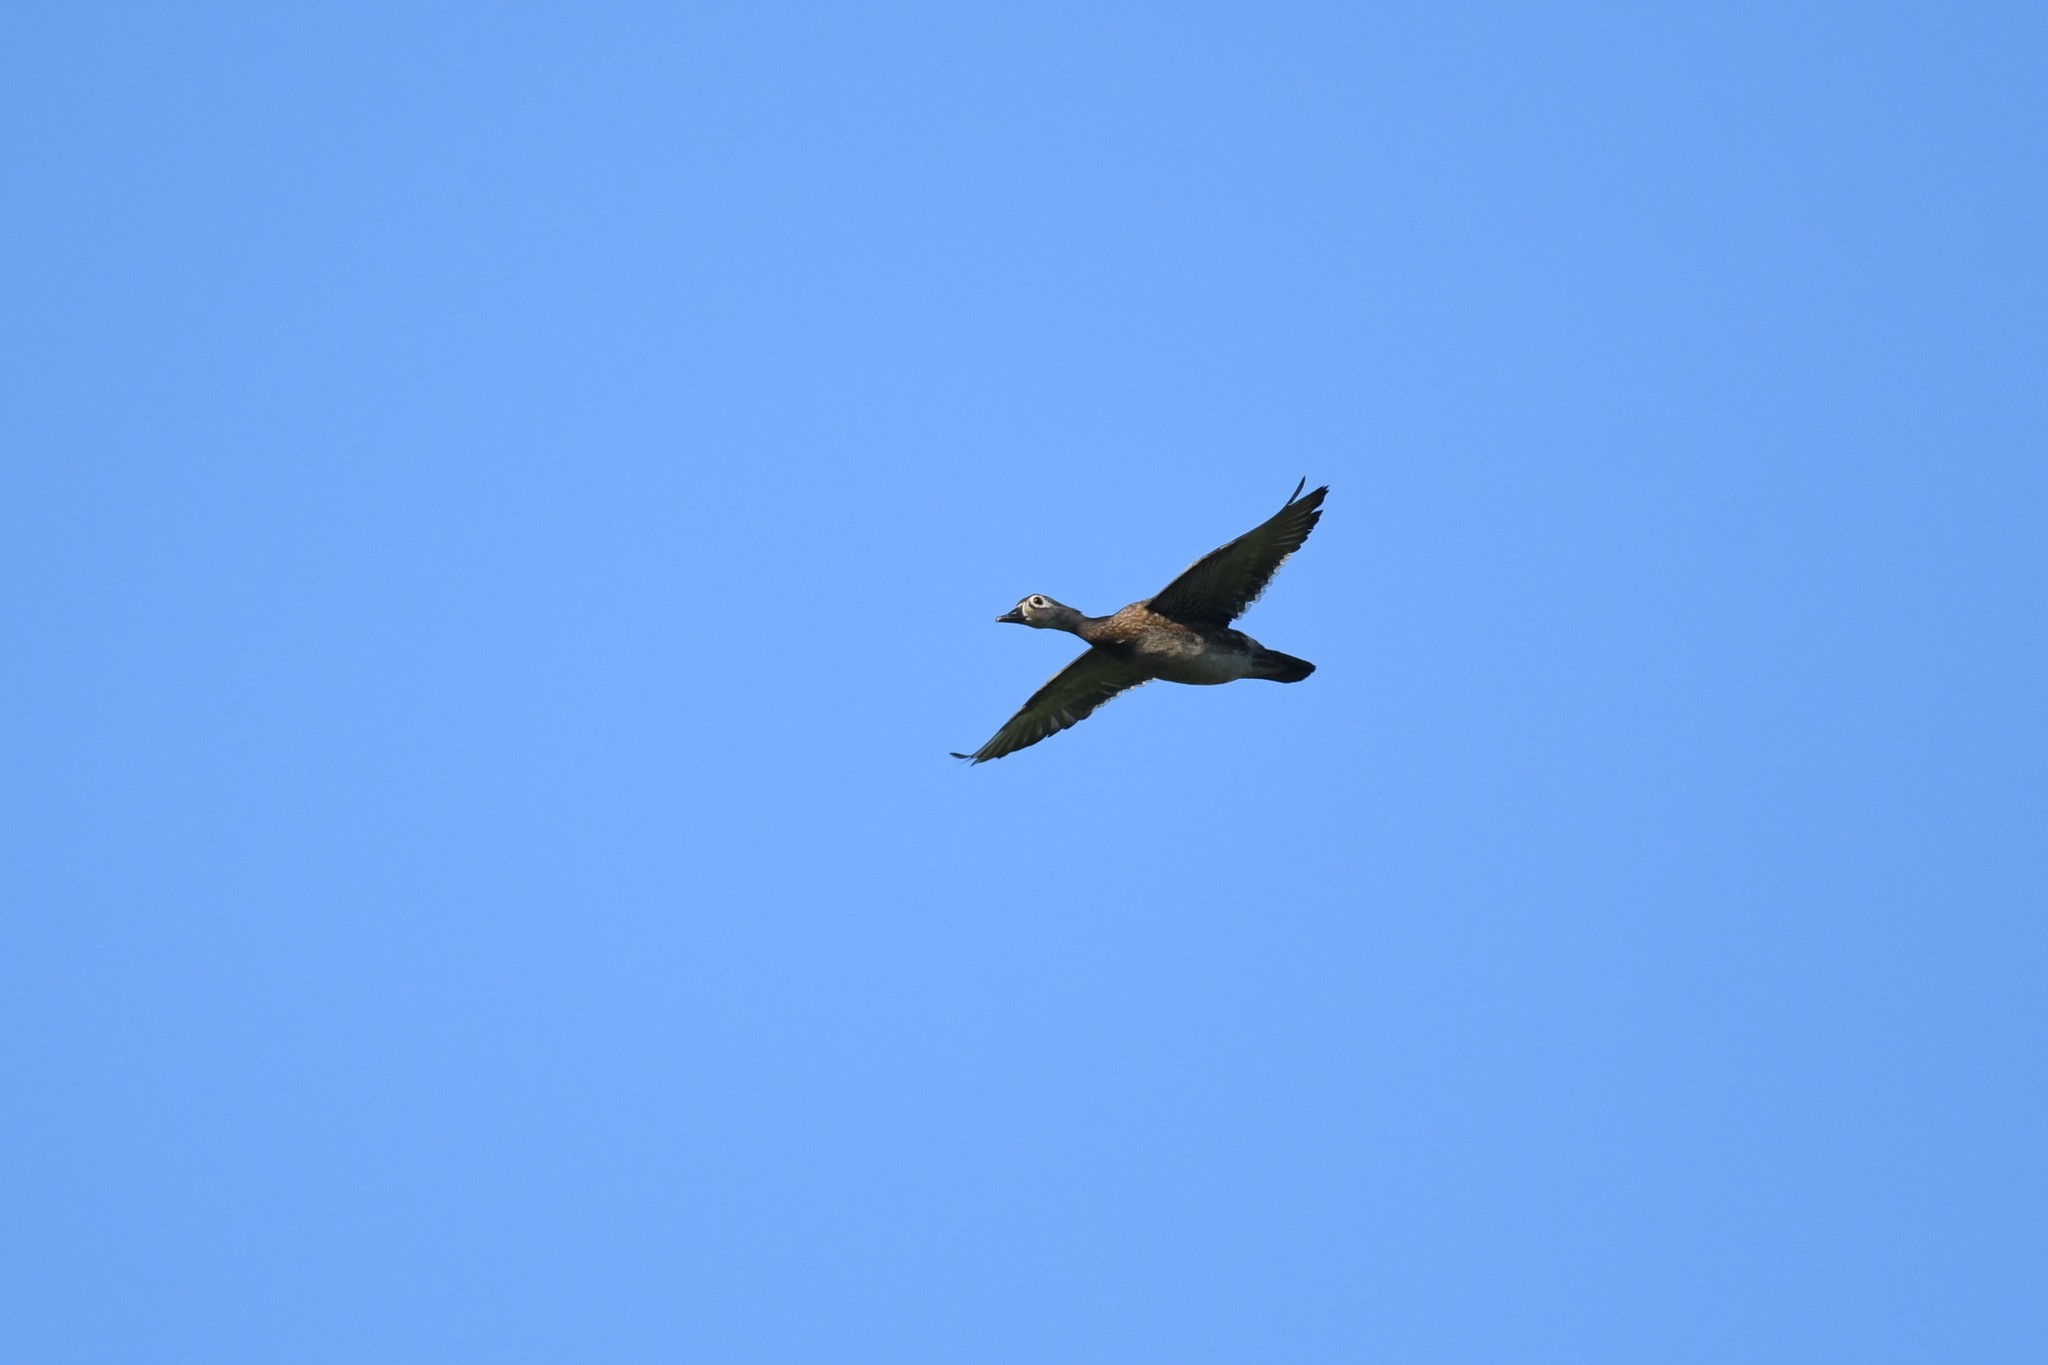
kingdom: Animalia
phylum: Chordata
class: Aves
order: Anseriformes
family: Anatidae
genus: Aix
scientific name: Aix sponsa
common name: Wood duck
